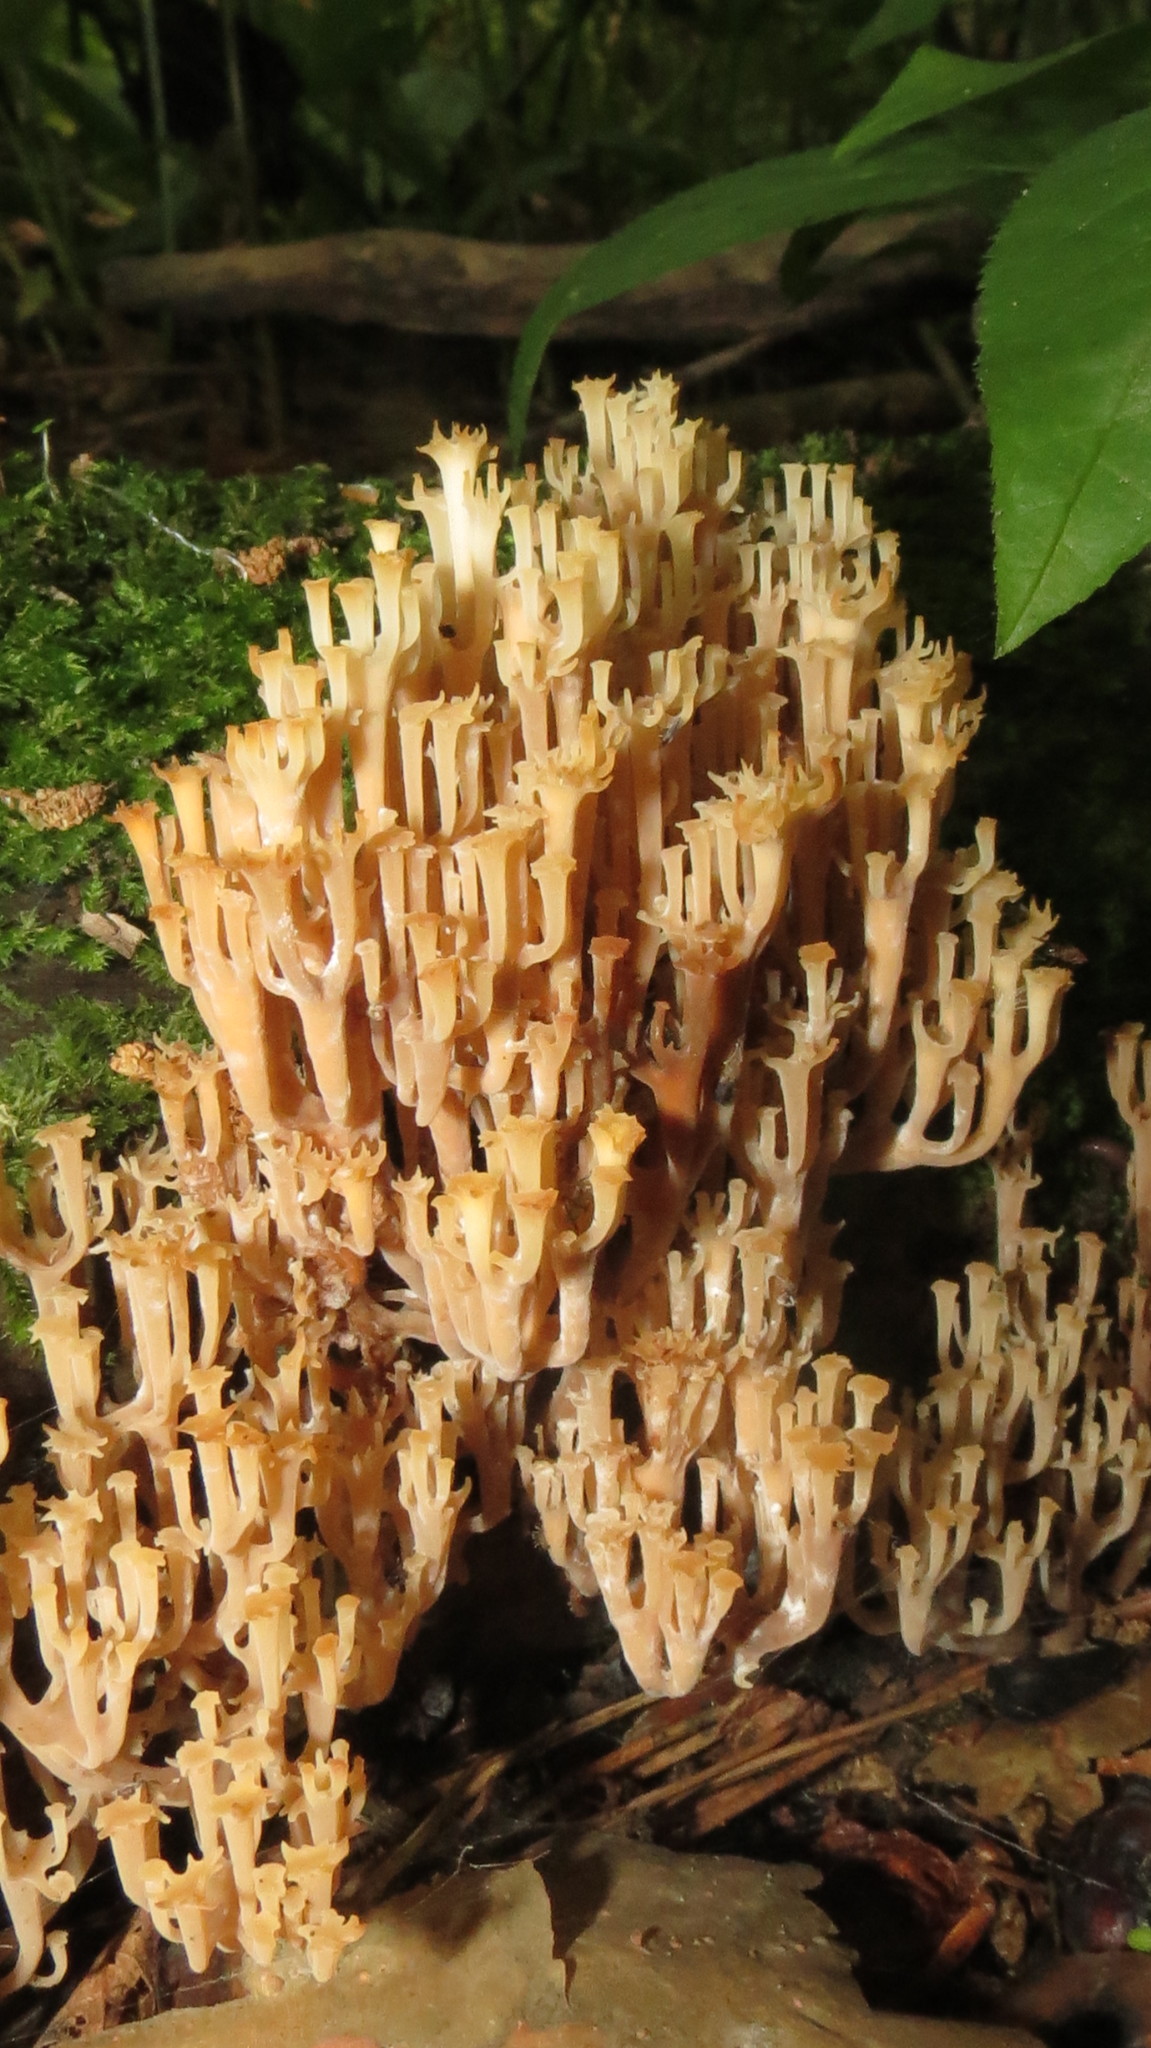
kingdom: Fungi
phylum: Basidiomycota
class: Agaricomycetes
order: Russulales
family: Auriscalpiaceae
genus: Artomyces
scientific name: Artomyces pyxidatus
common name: Crown-tipped coral fungus
